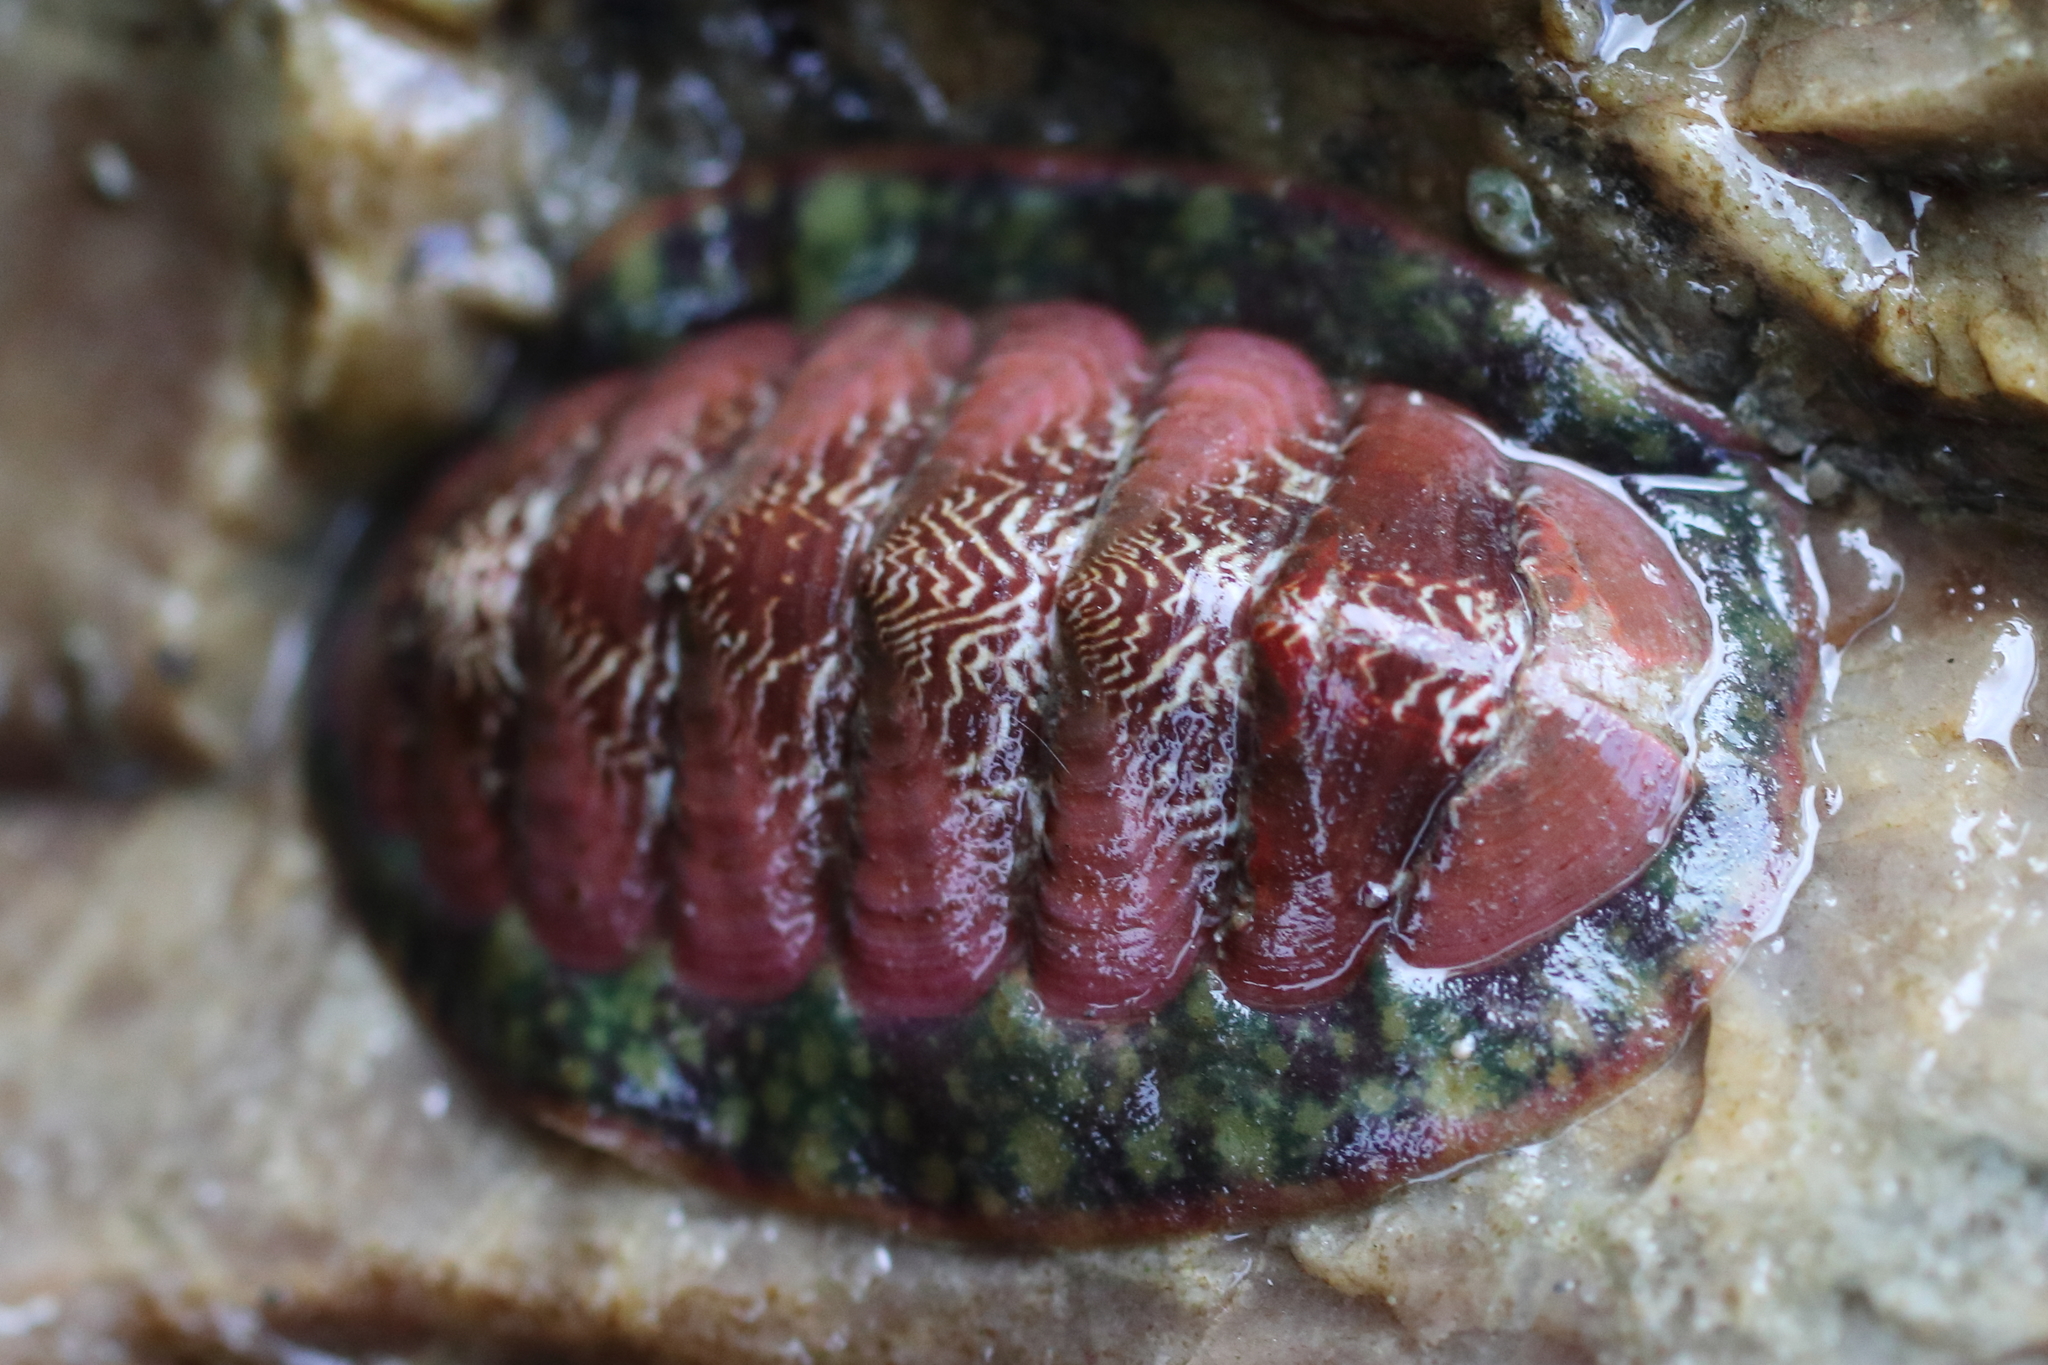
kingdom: Animalia
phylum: Mollusca
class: Polyplacophora
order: Chitonida
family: Tonicellidae
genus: Tonicella
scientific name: Tonicella insignis
